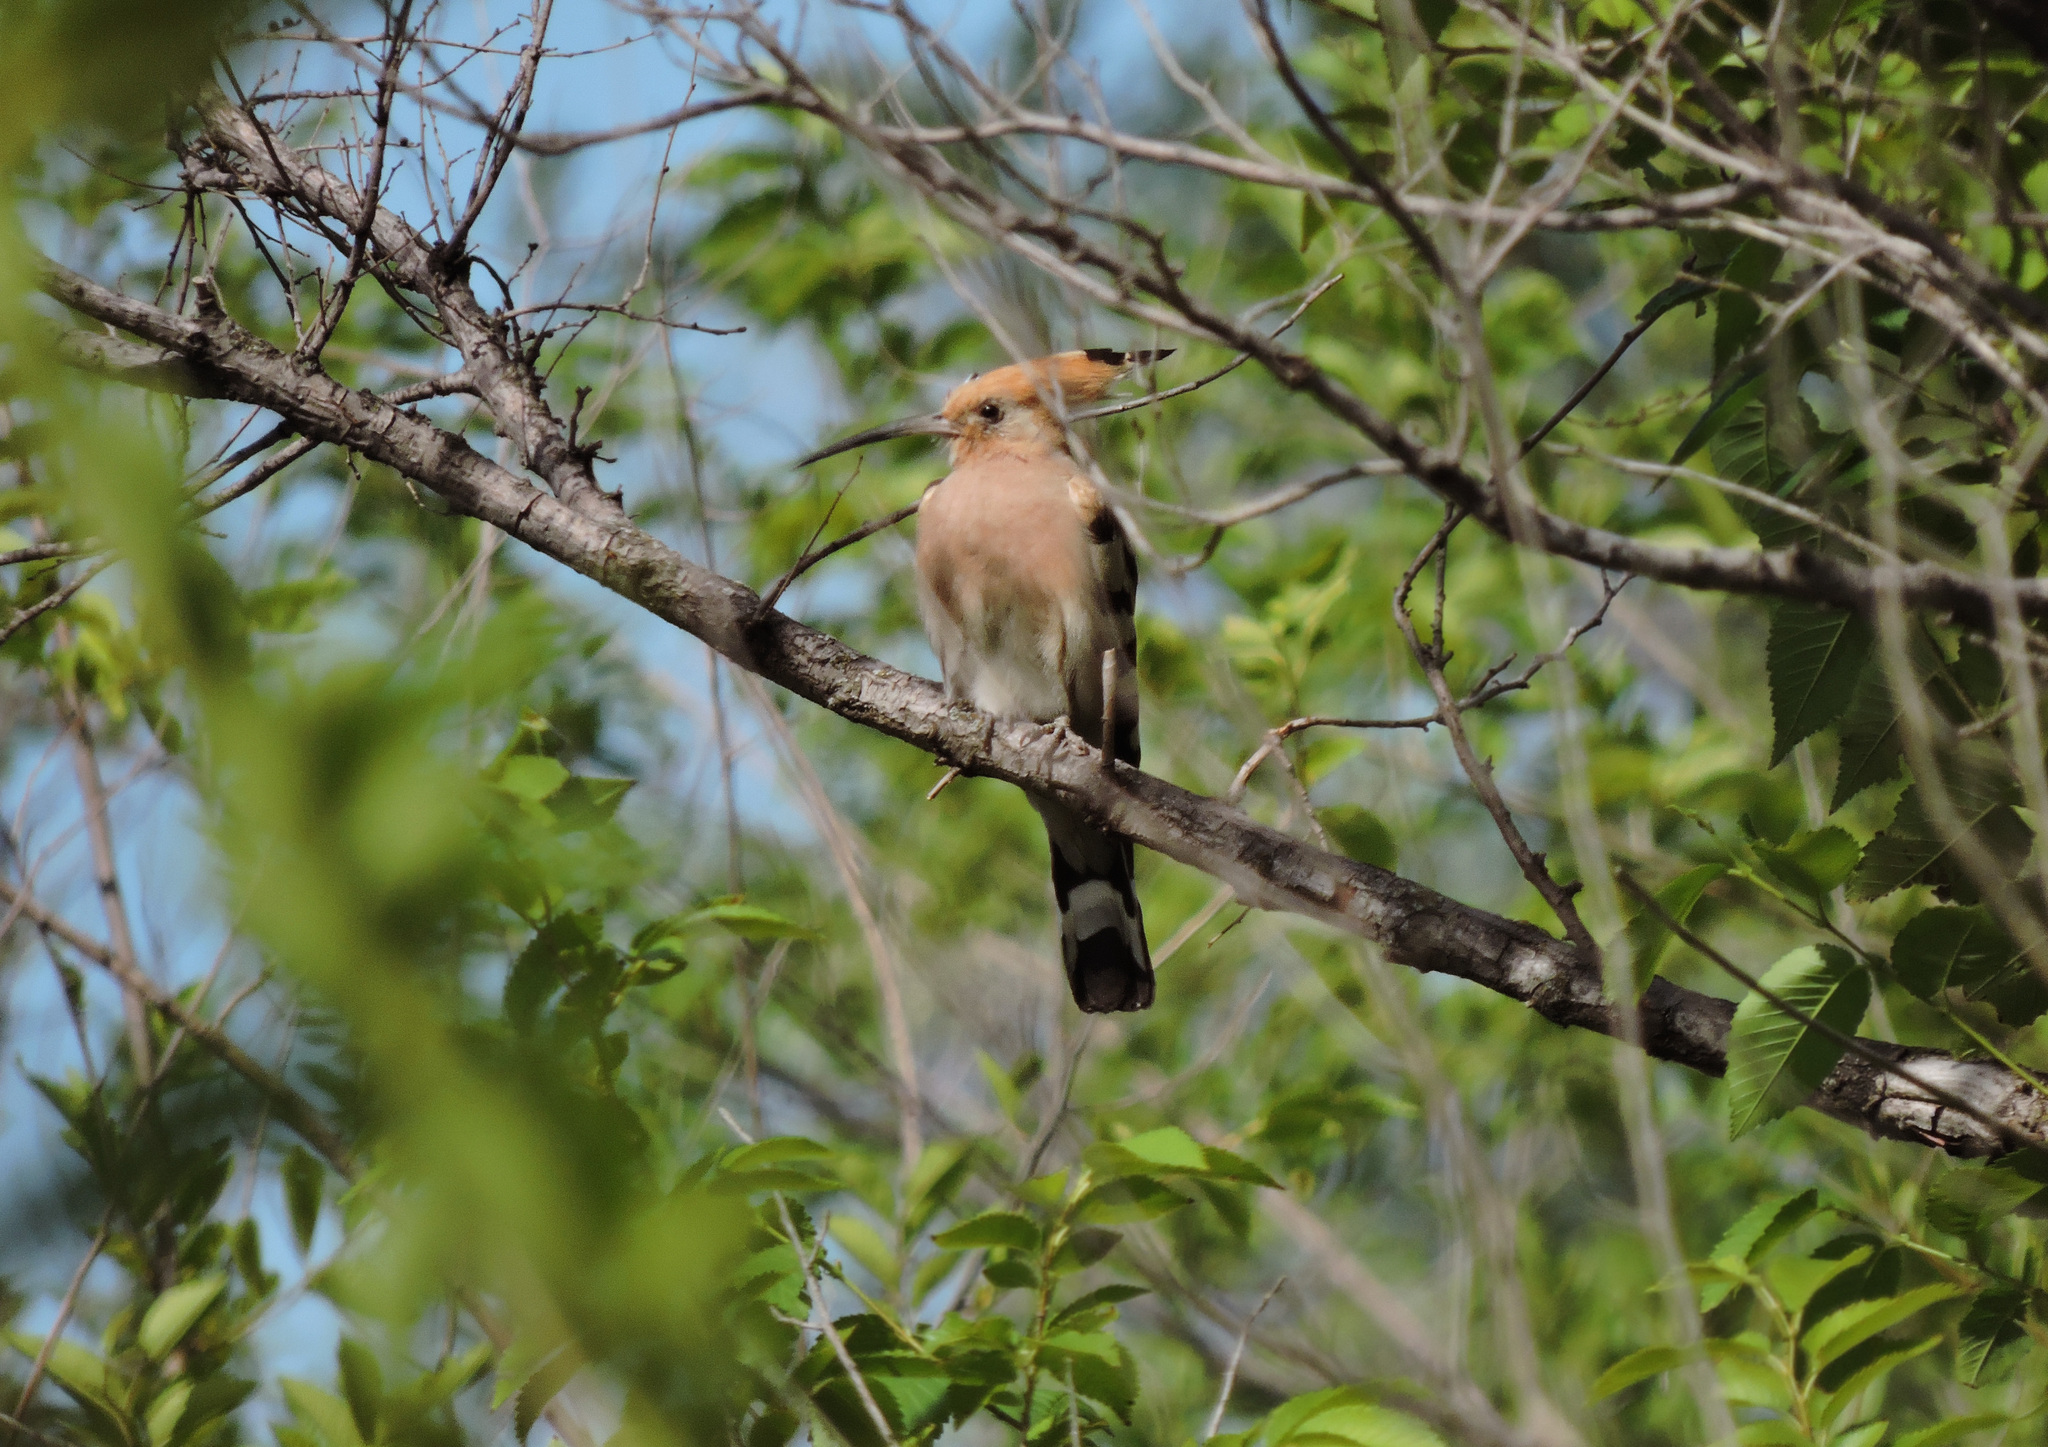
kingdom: Animalia
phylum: Chordata
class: Aves
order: Bucerotiformes
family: Upupidae
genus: Upupa
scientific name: Upupa epops
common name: Eurasian hoopoe
